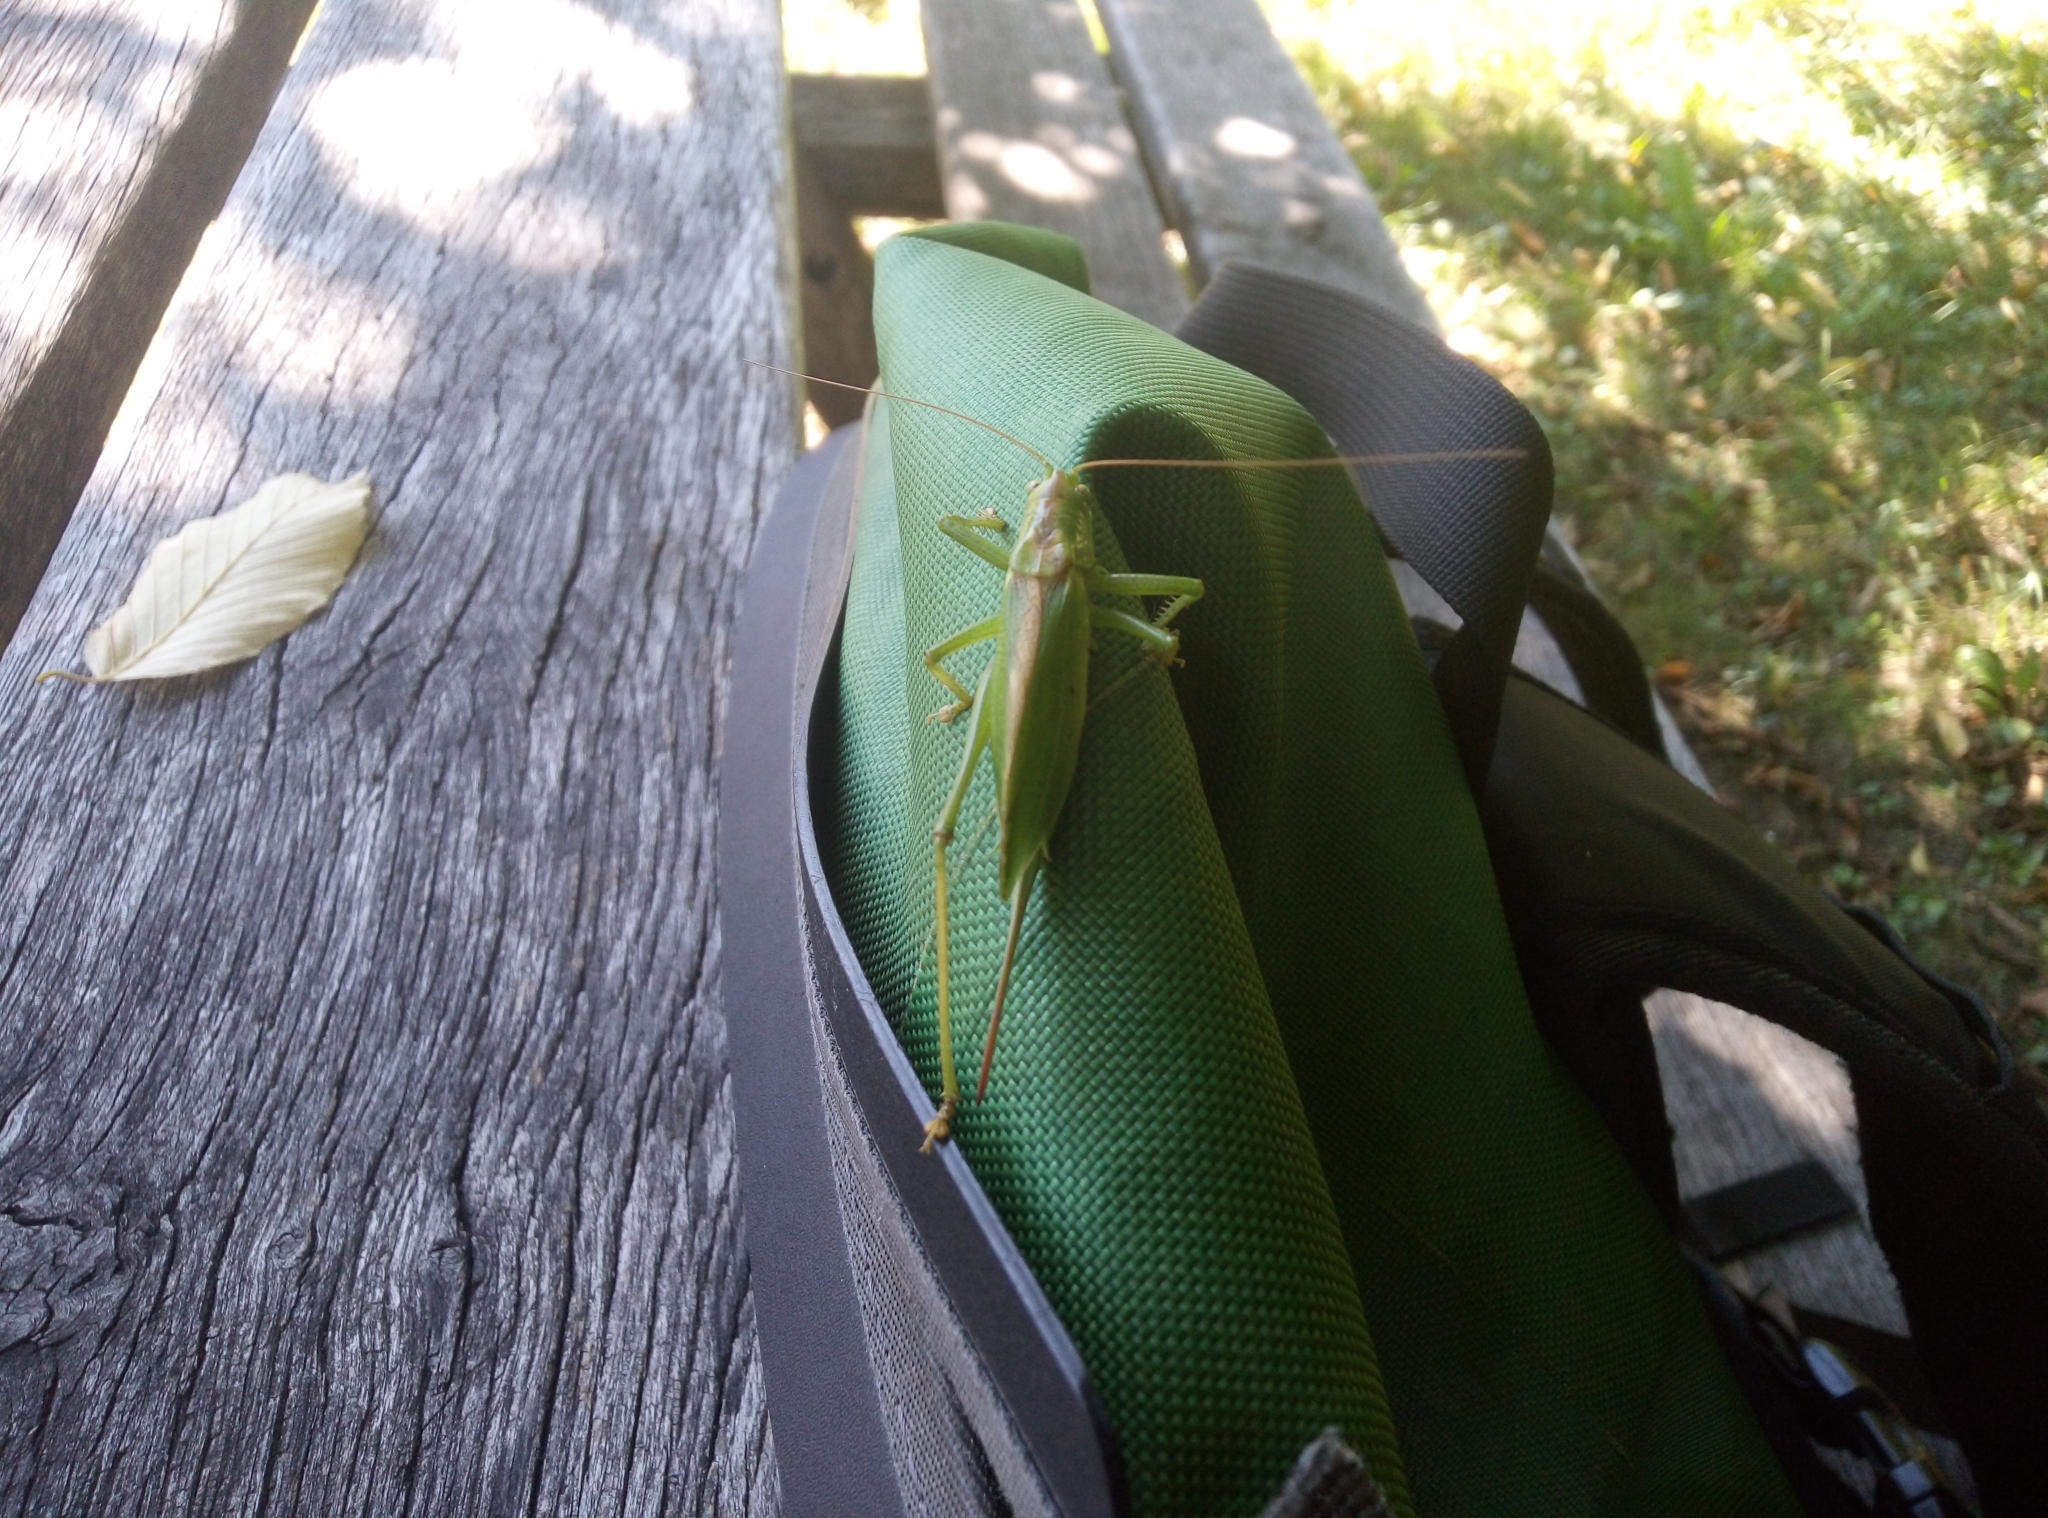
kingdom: Animalia
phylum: Arthropoda
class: Insecta
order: Orthoptera
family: Tettigoniidae
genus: Tettigonia
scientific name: Tettigonia cantans
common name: Upland green bush-cricket
